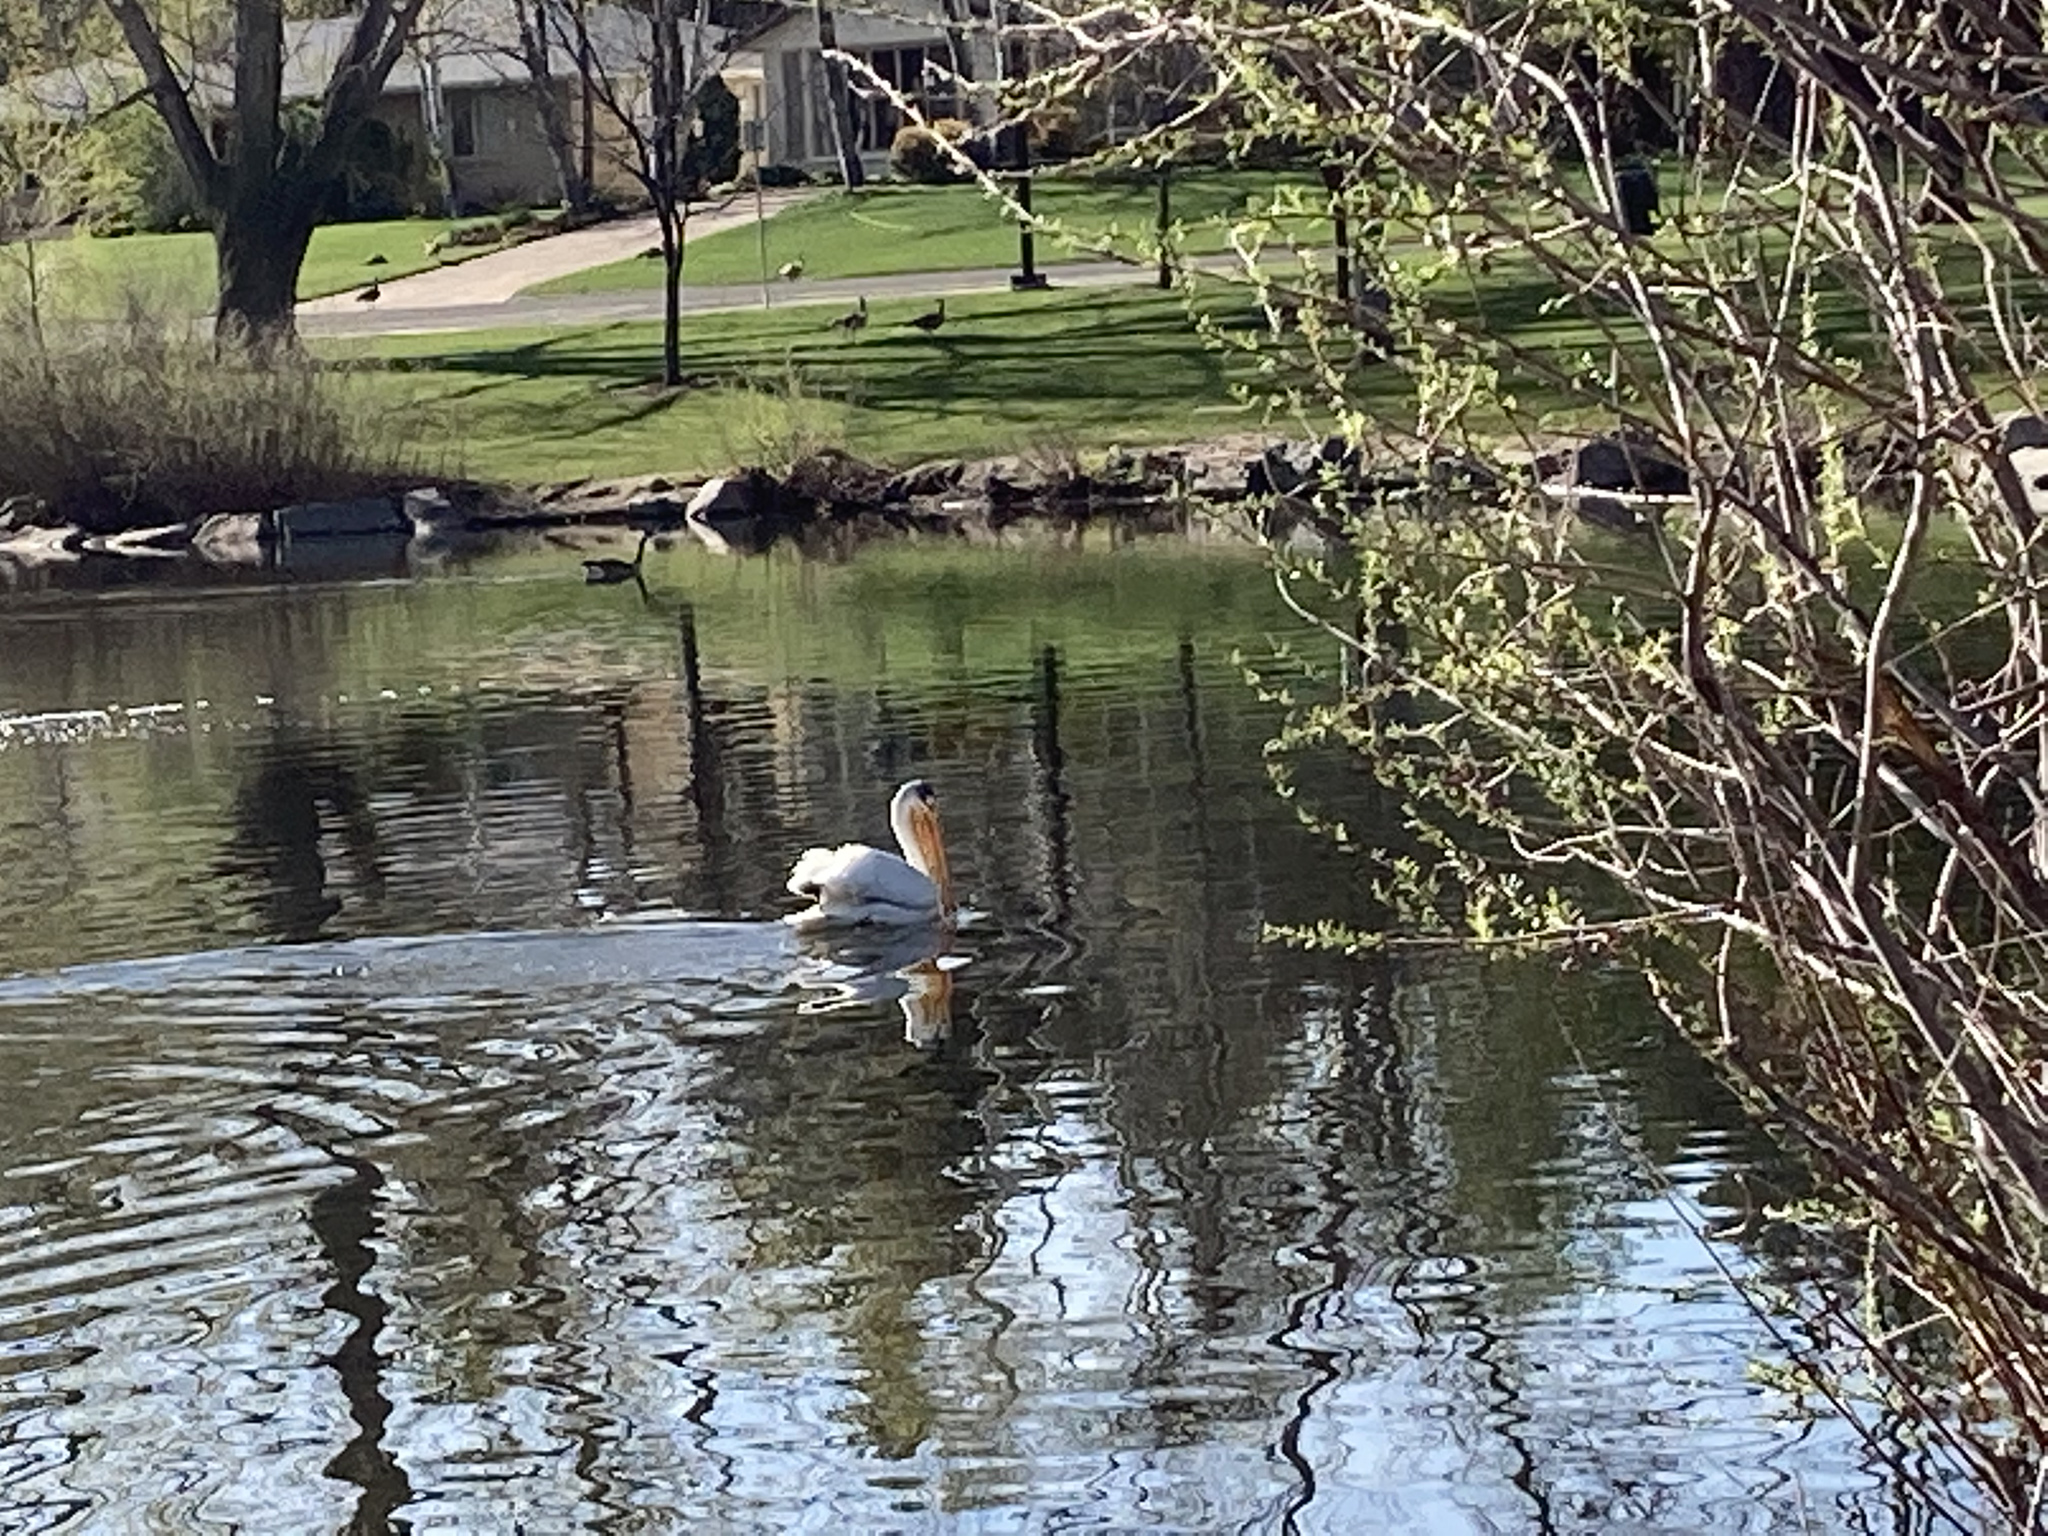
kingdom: Animalia
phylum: Chordata
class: Aves
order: Pelecaniformes
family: Pelecanidae
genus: Pelecanus
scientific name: Pelecanus erythrorhynchos
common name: American white pelican
